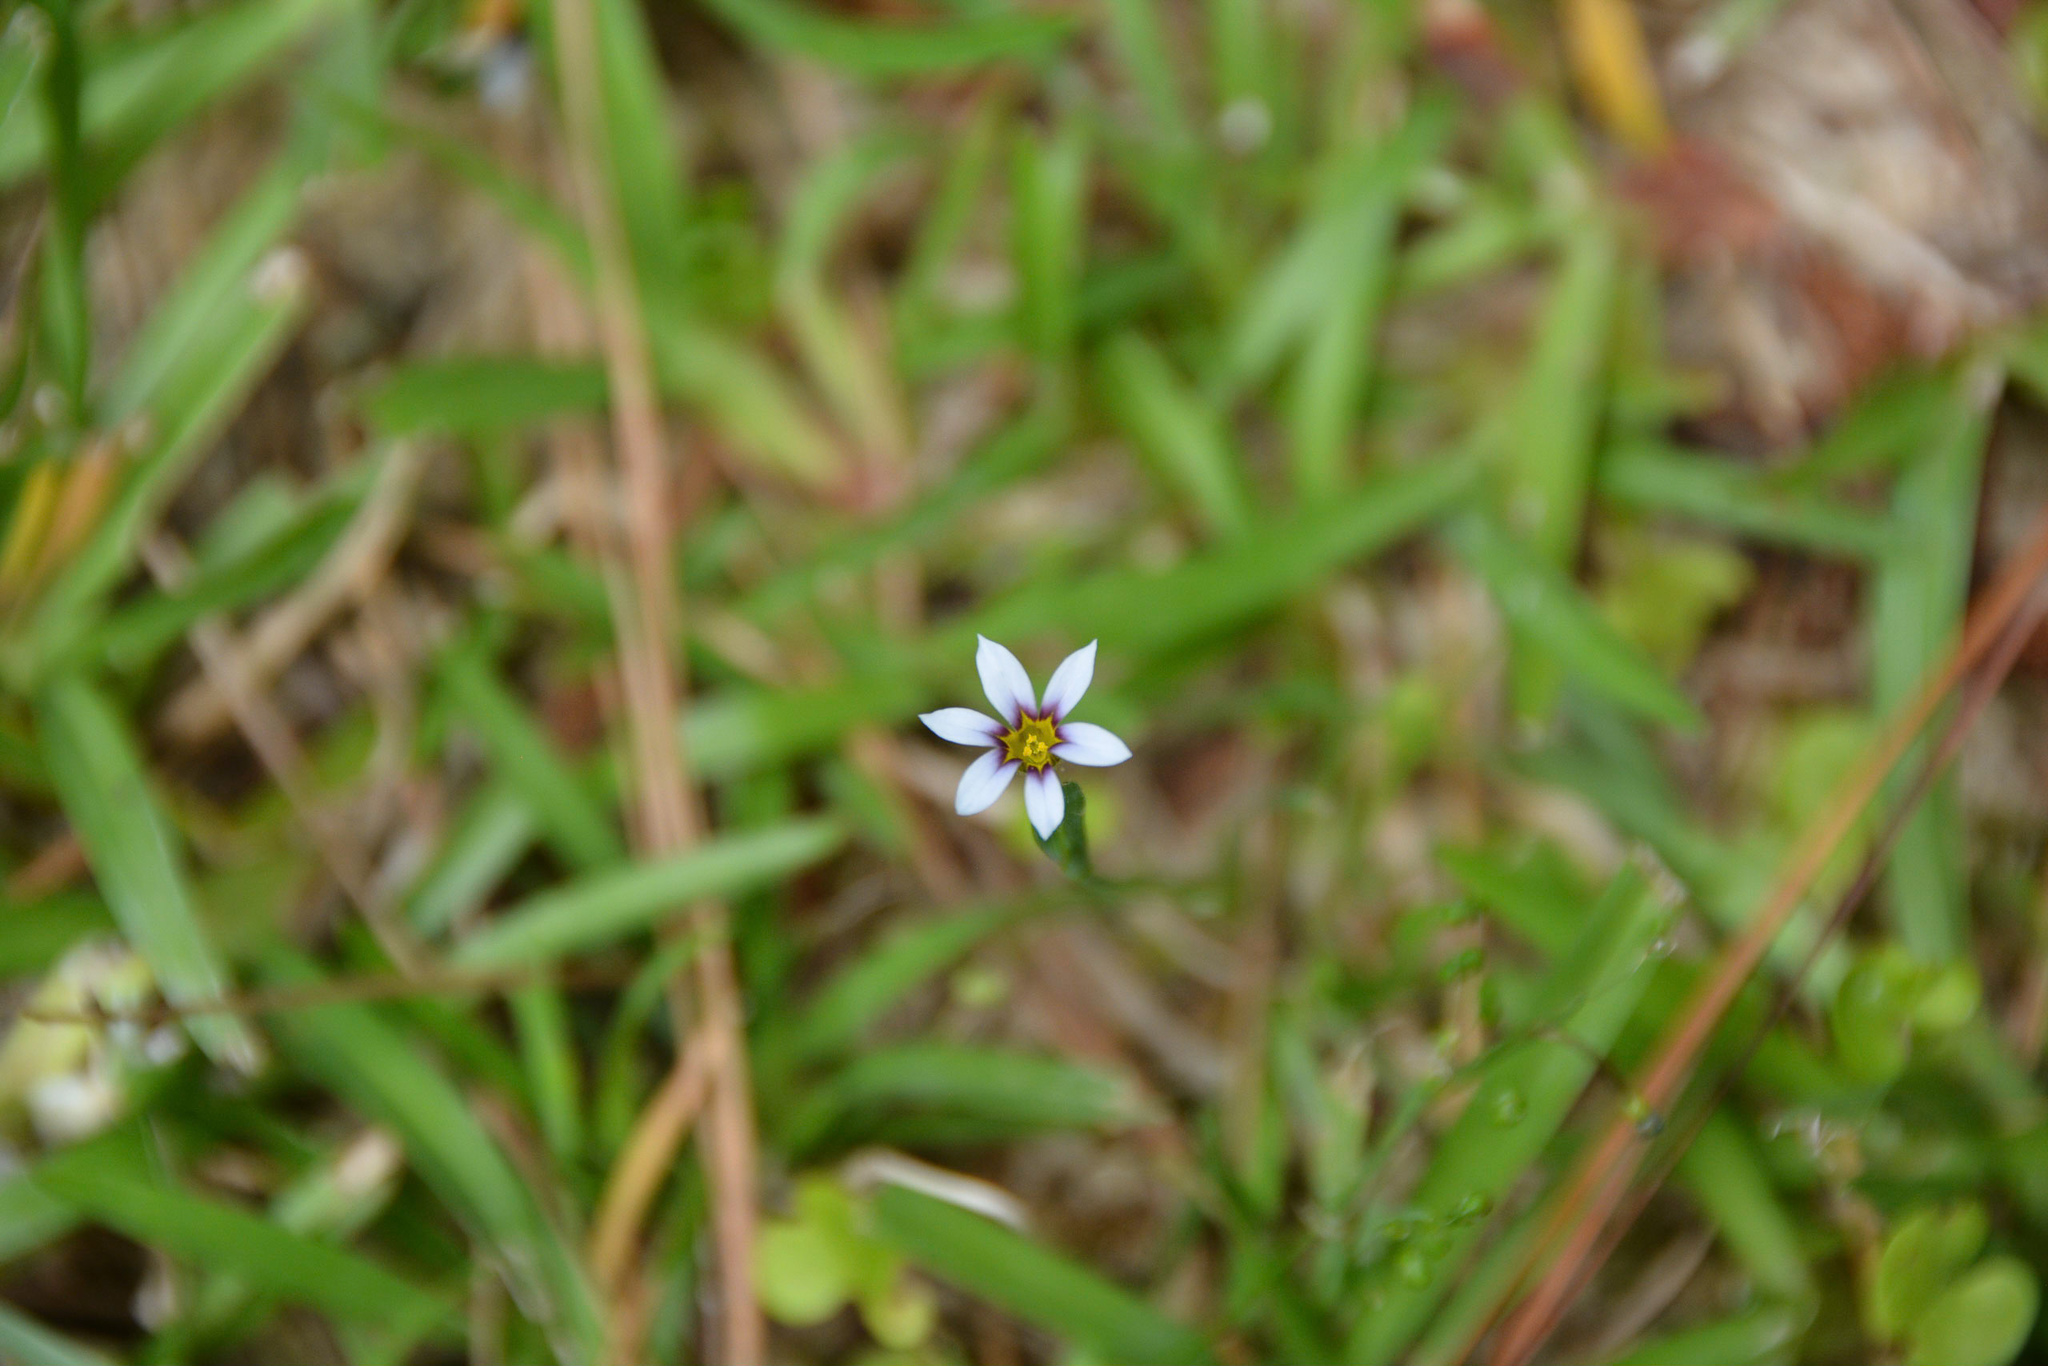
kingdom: Plantae
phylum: Tracheophyta
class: Liliopsida
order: Asparagales
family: Iridaceae
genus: Sisyrinchium
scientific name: Sisyrinchium micranthum
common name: Bermuda pigroot
